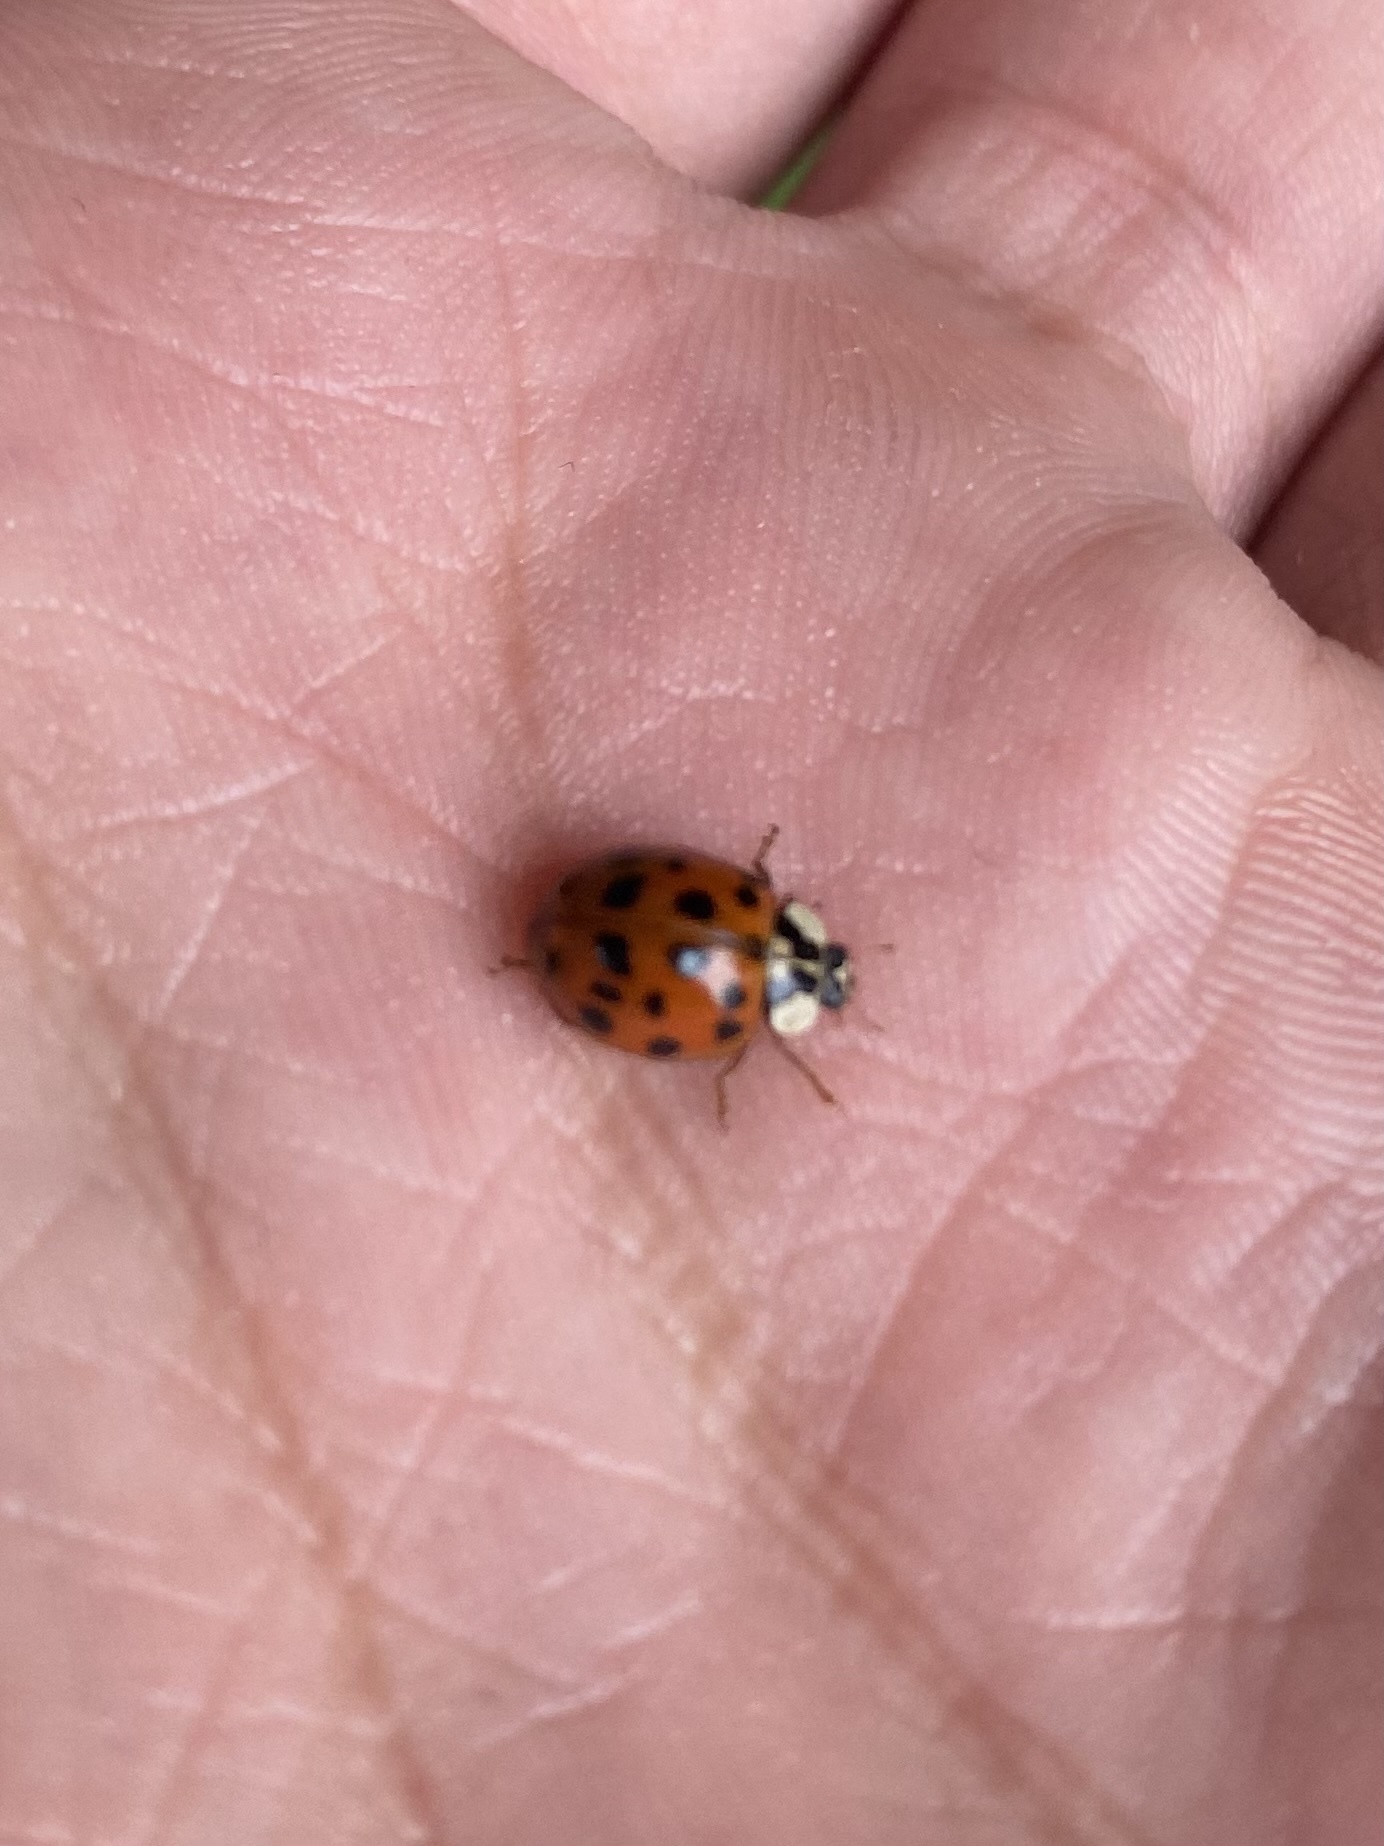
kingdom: Animalia
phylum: Arthropoda
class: Insecta
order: Coleoptera
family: Coccinellidae
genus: Harmonia
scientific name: Harmonia axyridis
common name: Harlequin ladybird
